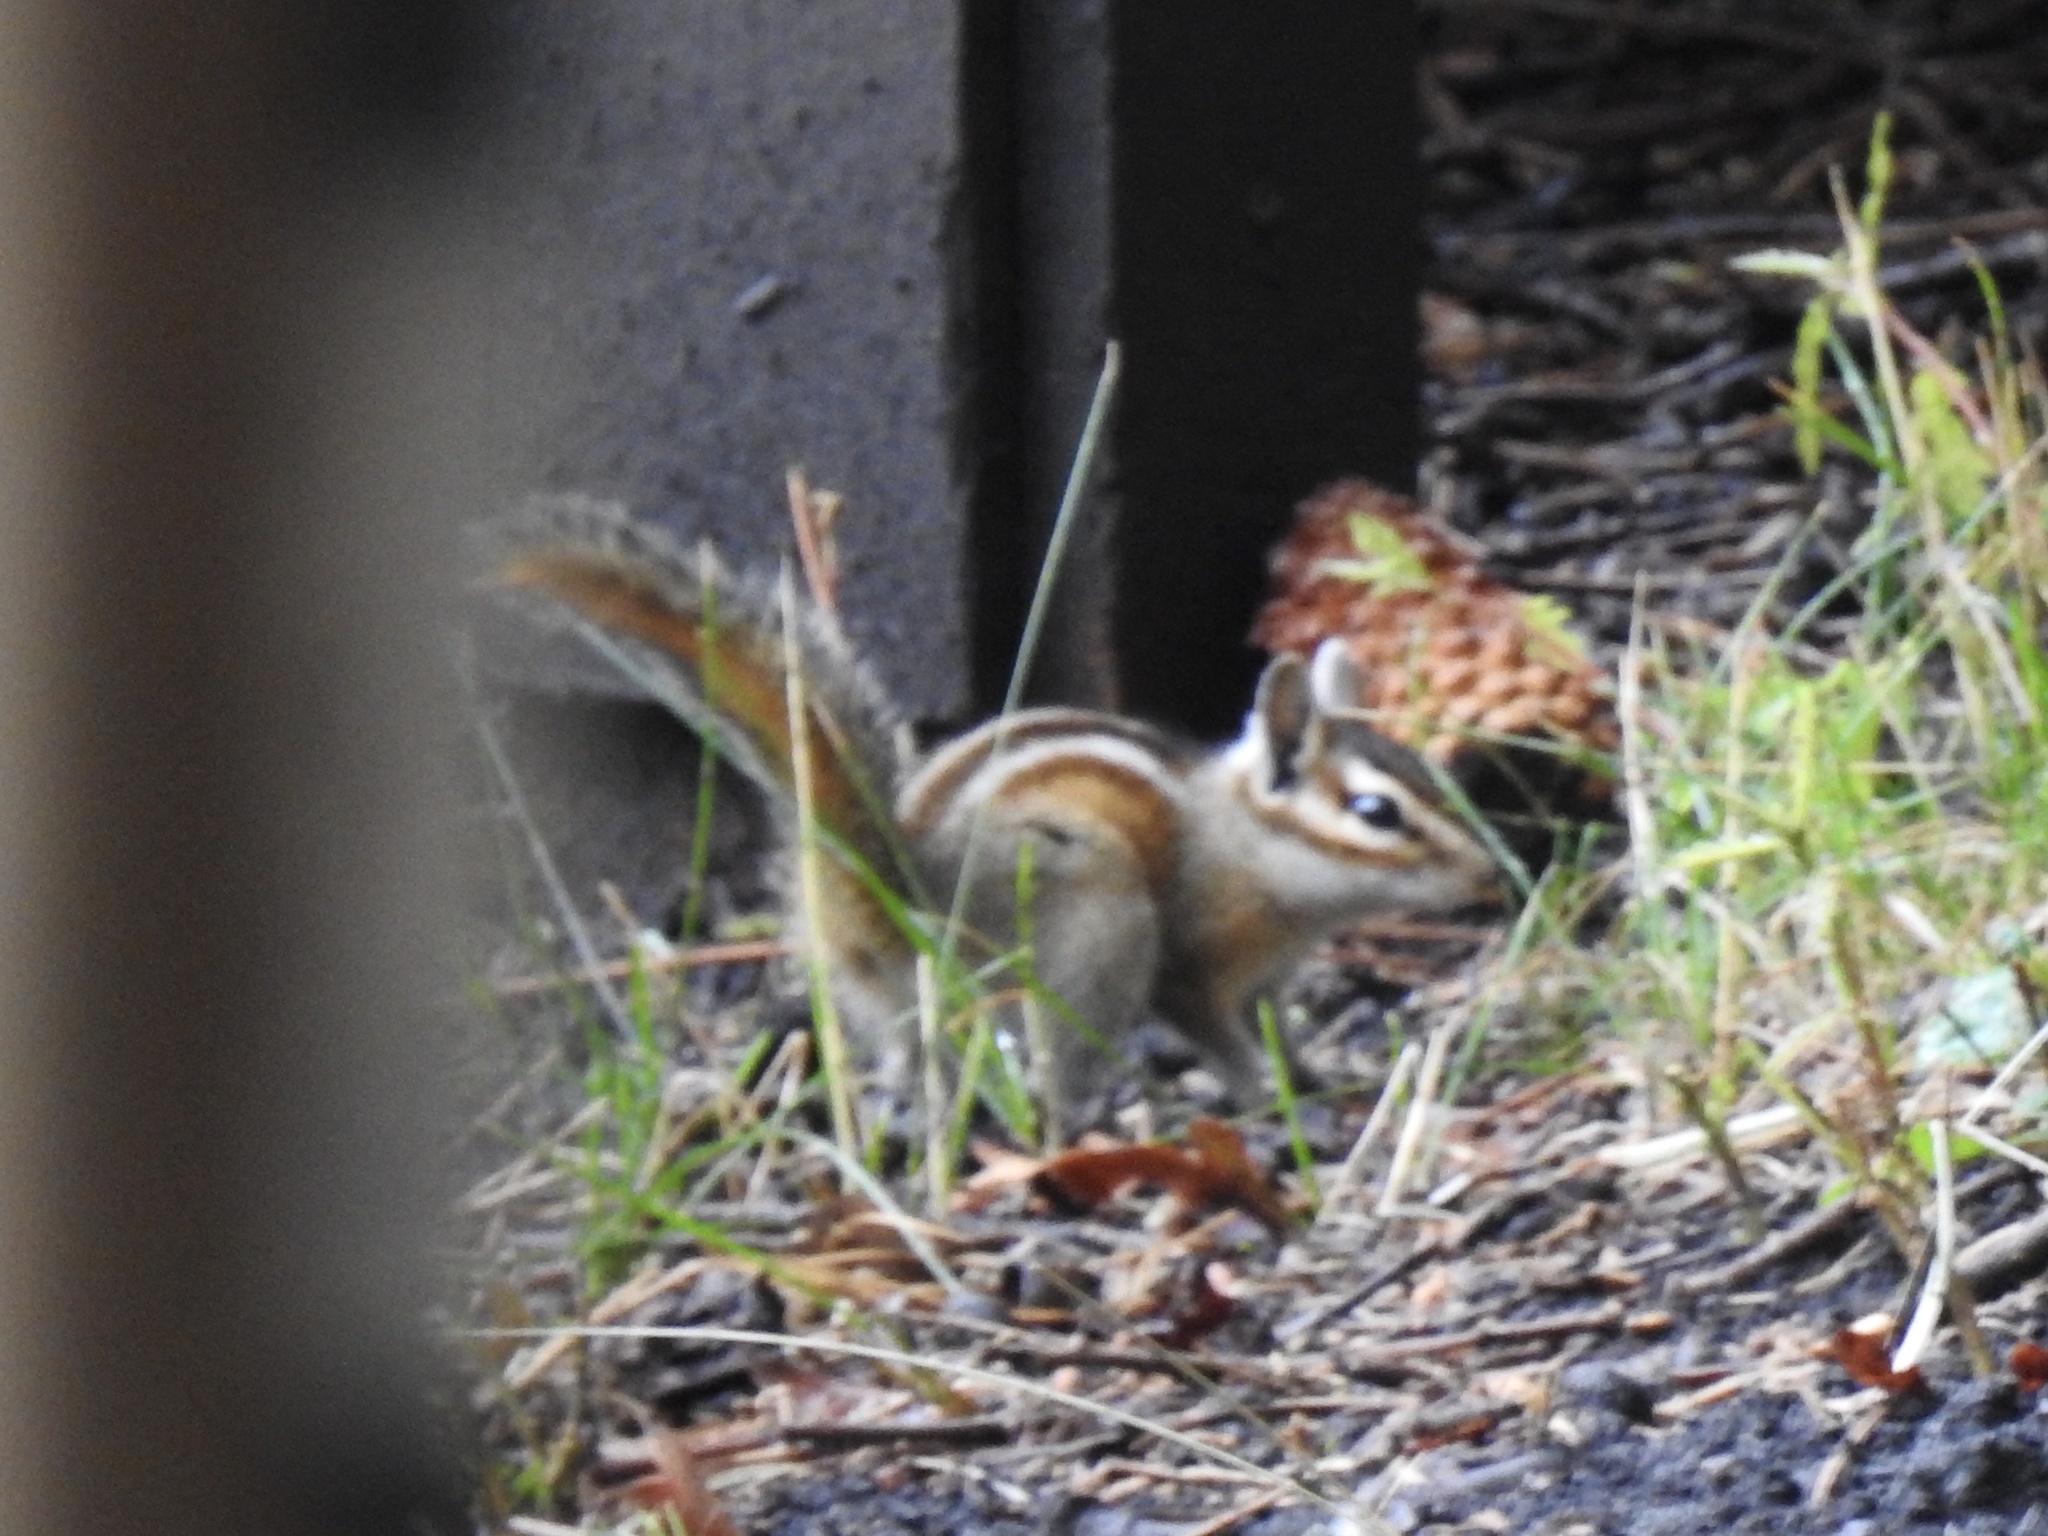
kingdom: Animalia
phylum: Chordata
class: Mammalia
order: Rodentia
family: Sciuridae
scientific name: Sciuridae
